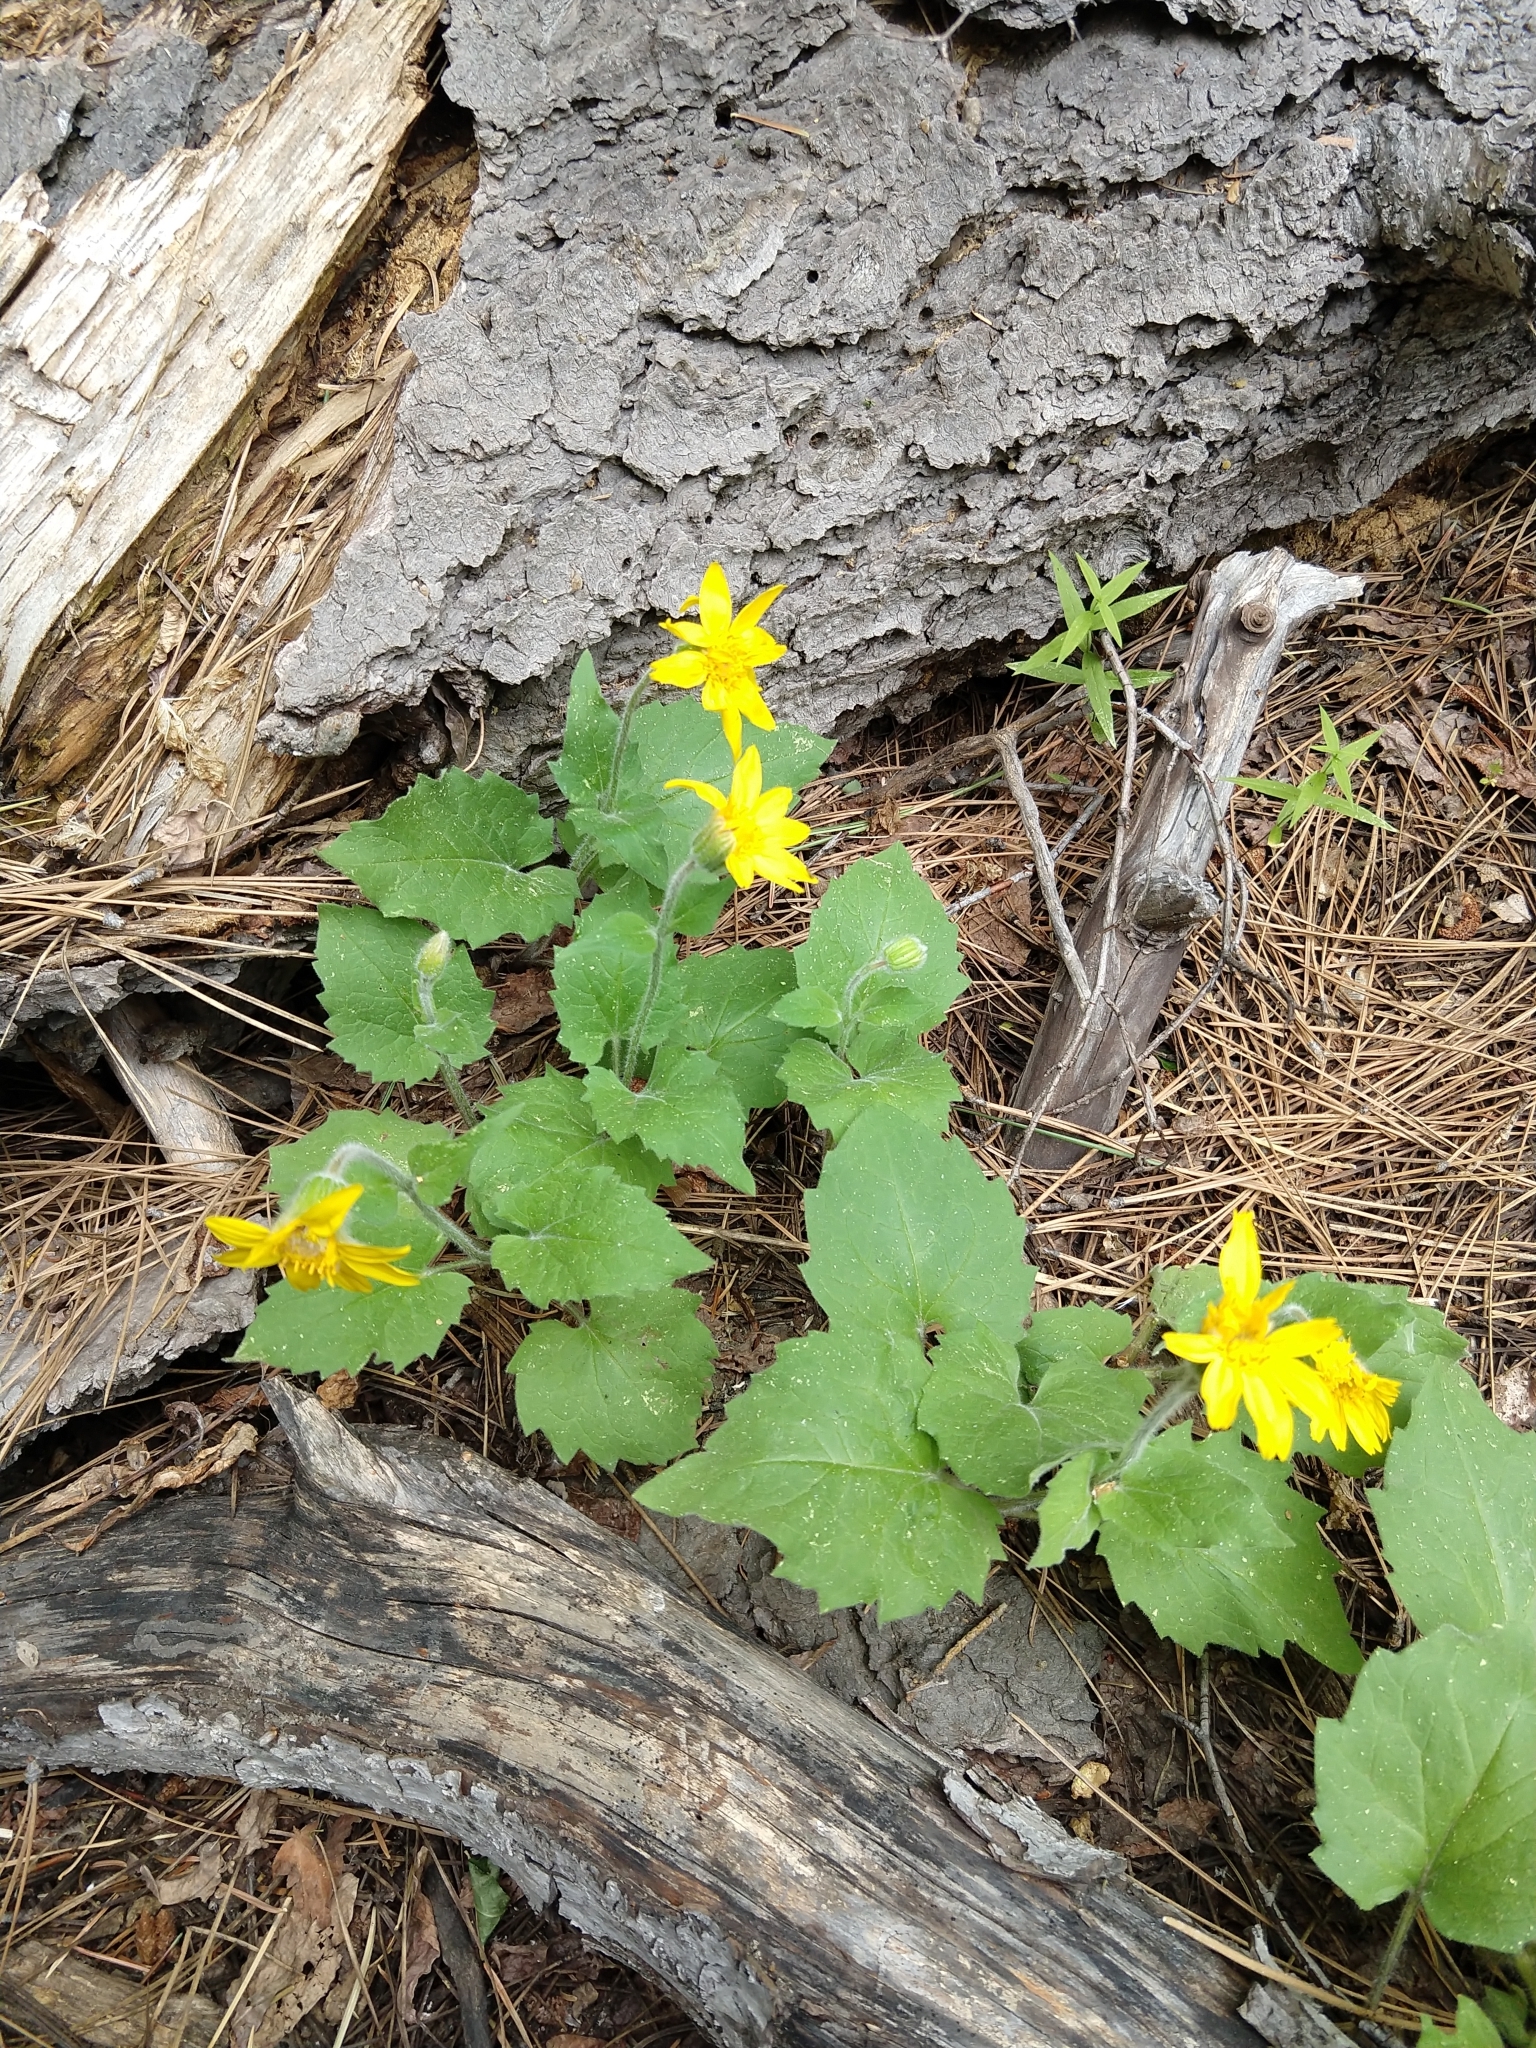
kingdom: Plantae
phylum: Tracheophyta
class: Magnoliopsida
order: Asterales
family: Asteraceae
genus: Arnica
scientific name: Arnica cordifolia
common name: Heart-leaf arnica
